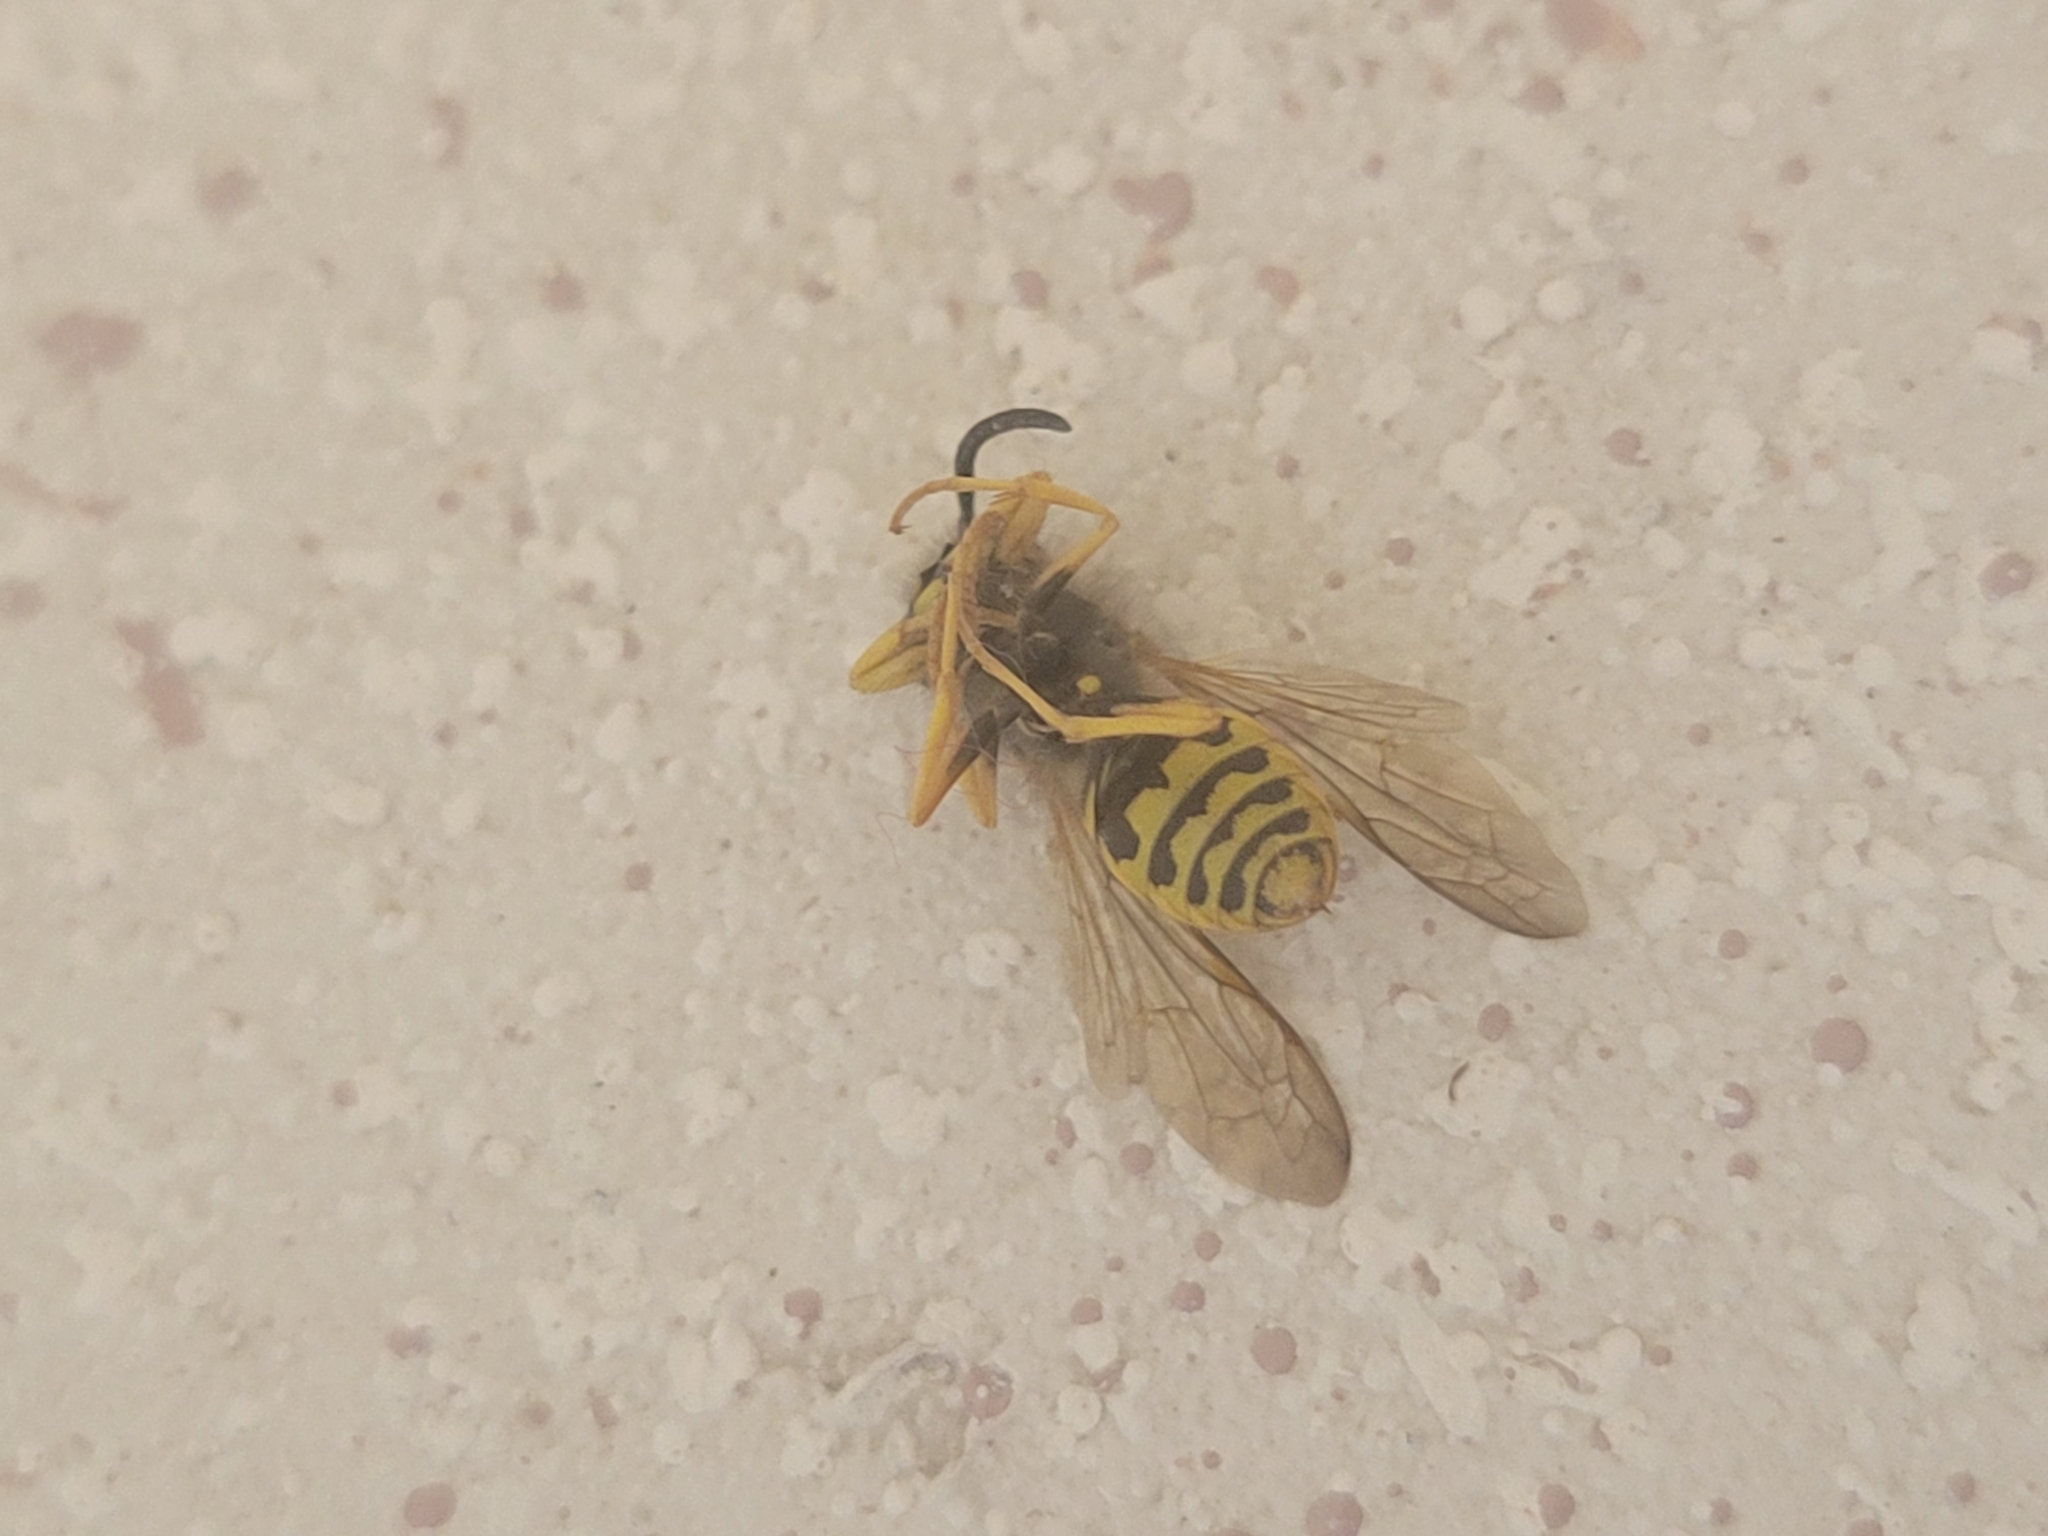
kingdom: Animalia
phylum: Arthropoda
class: Insecta
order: Hymenoptera
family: Vespidae
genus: Vespula
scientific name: Vespula maculifrons
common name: Eastern yellowjacket
